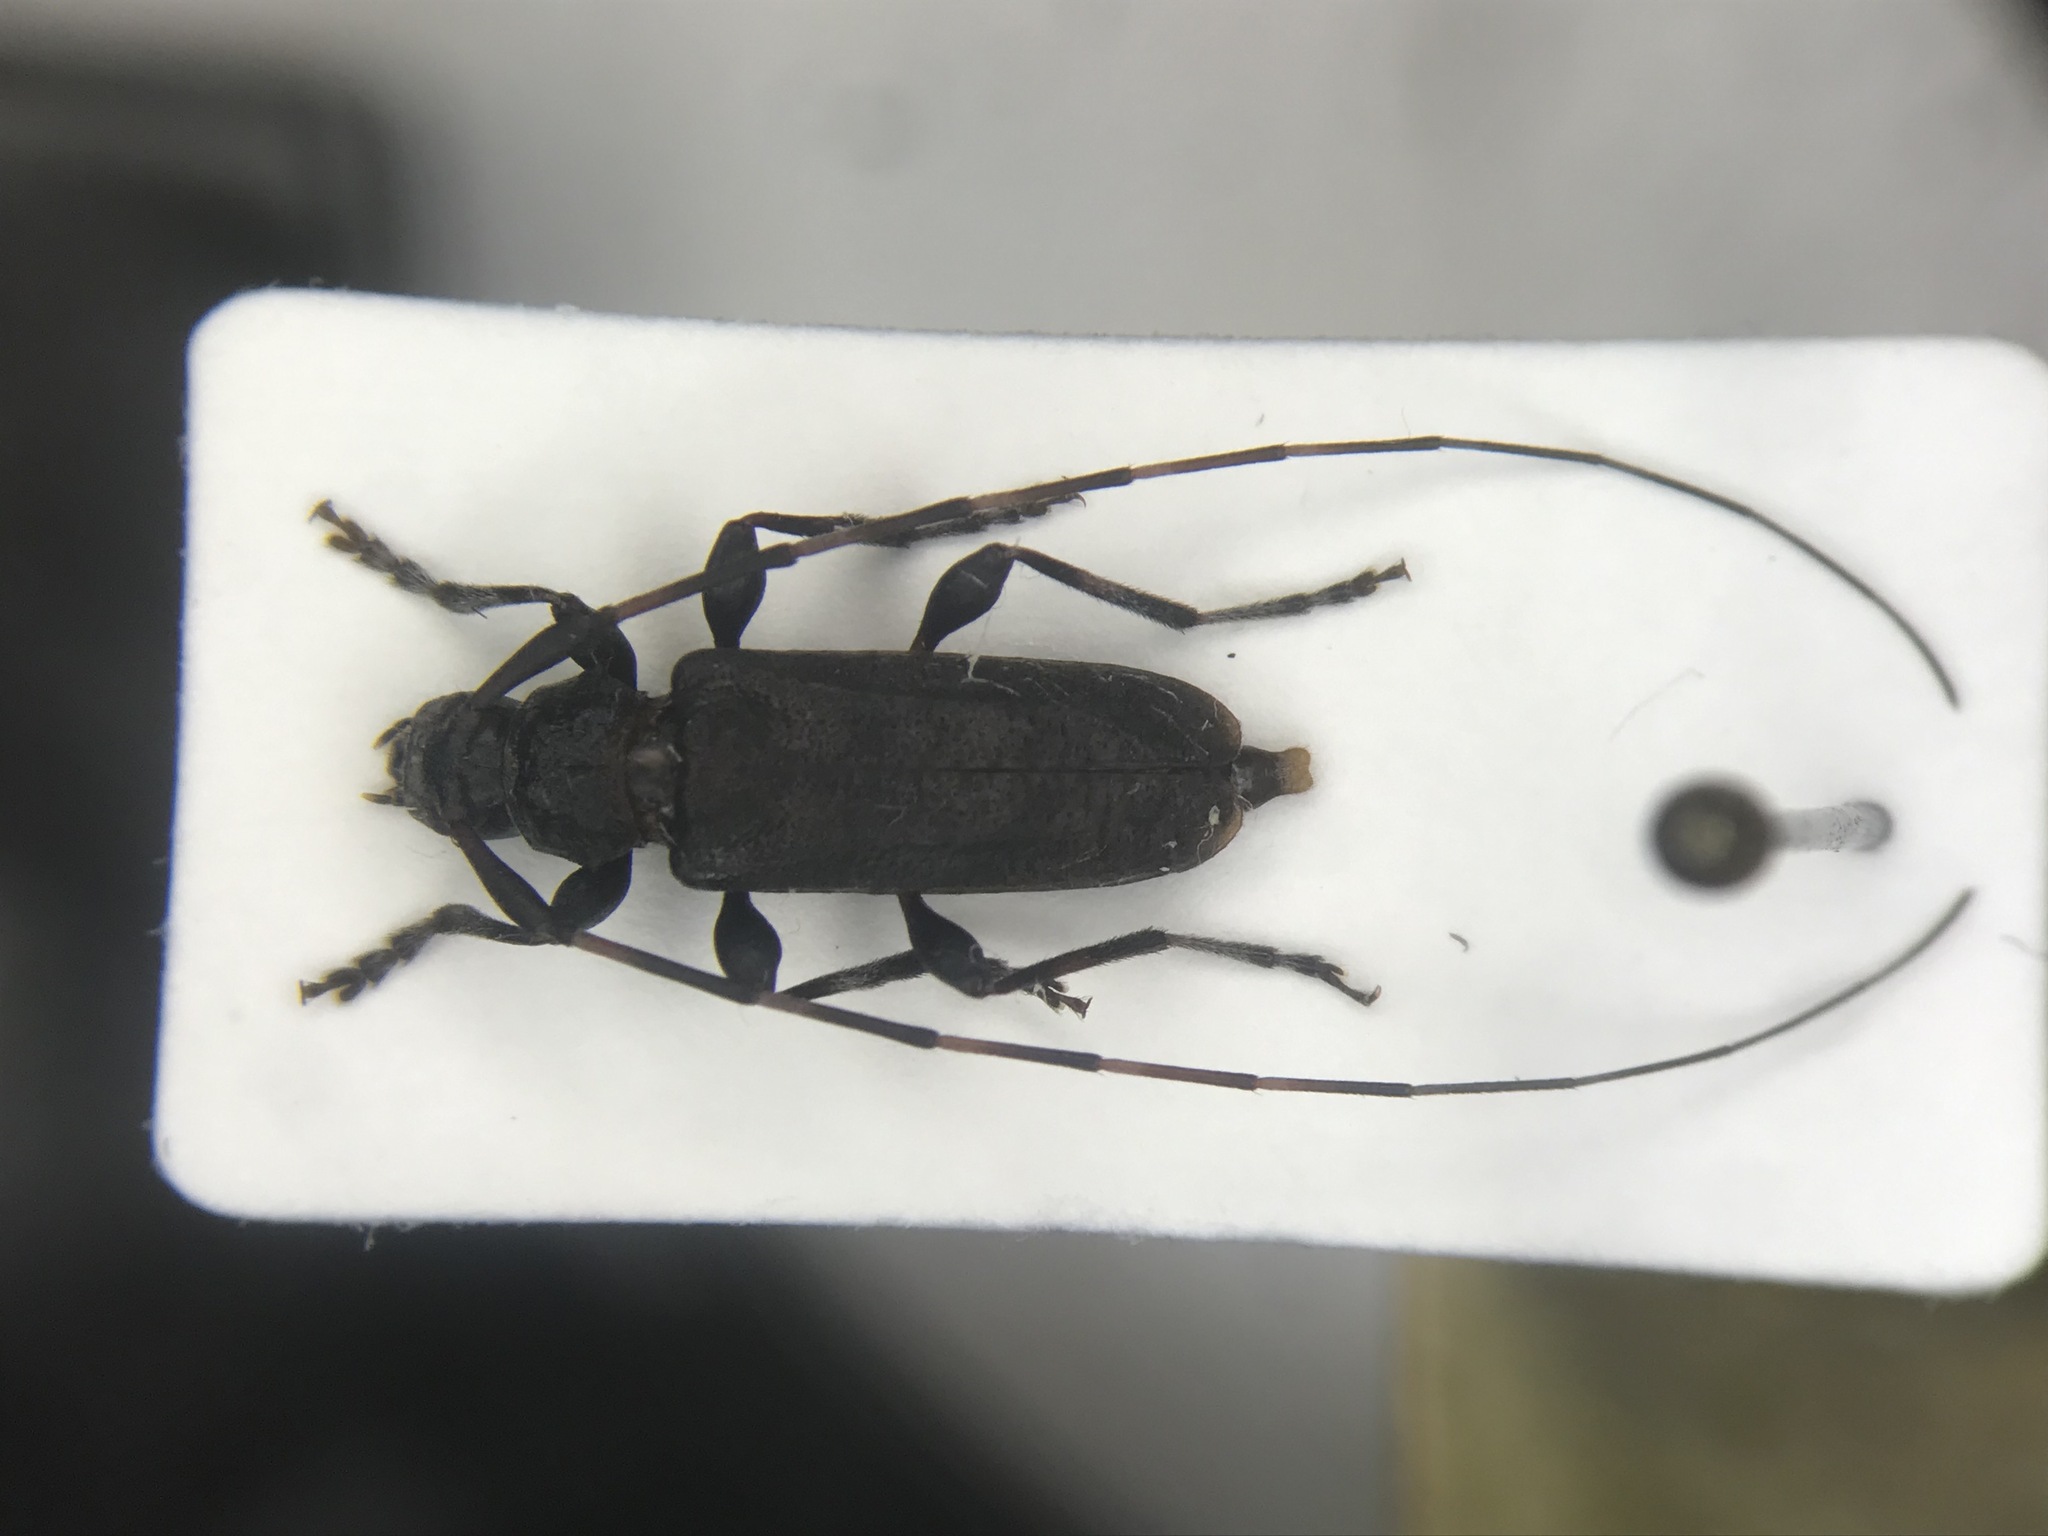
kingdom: Animalia
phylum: Arthropoda
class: Insecta
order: Coleoptera
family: Cerambycidae
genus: Acanthocinus
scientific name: Acanthocinus pusillus
